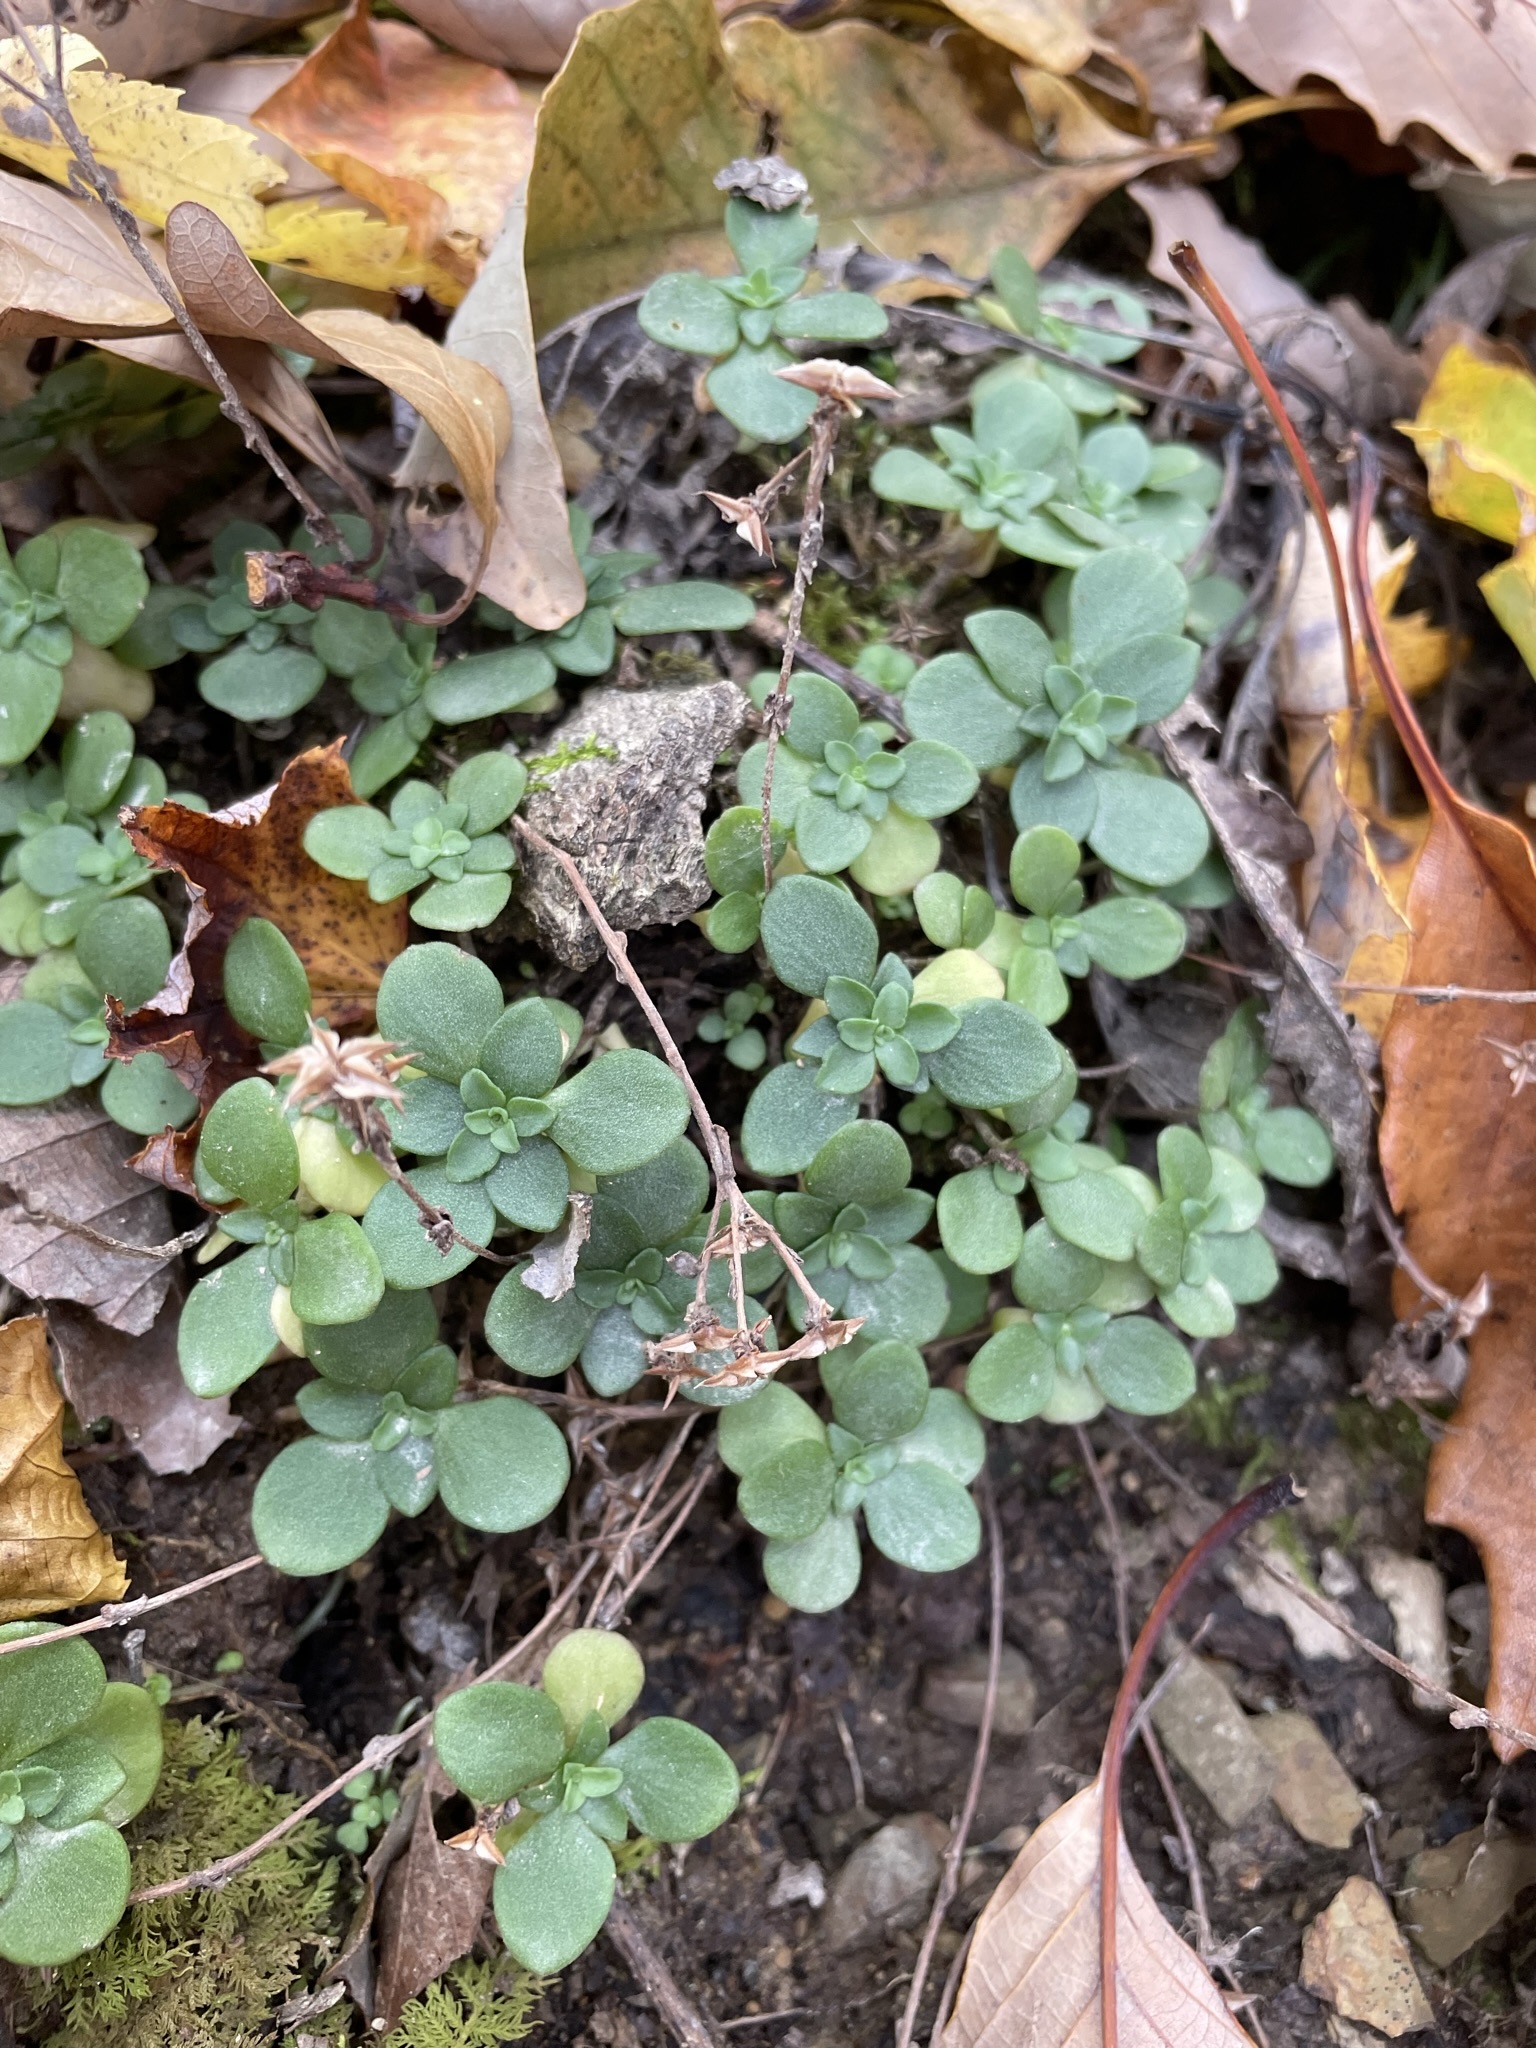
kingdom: Plantae
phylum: Tracheophyta
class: Magnoliopsida
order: Saxifragales
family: Crassulaceae
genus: Sedum
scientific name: Sedum ternatum
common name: Wild stonecrop
